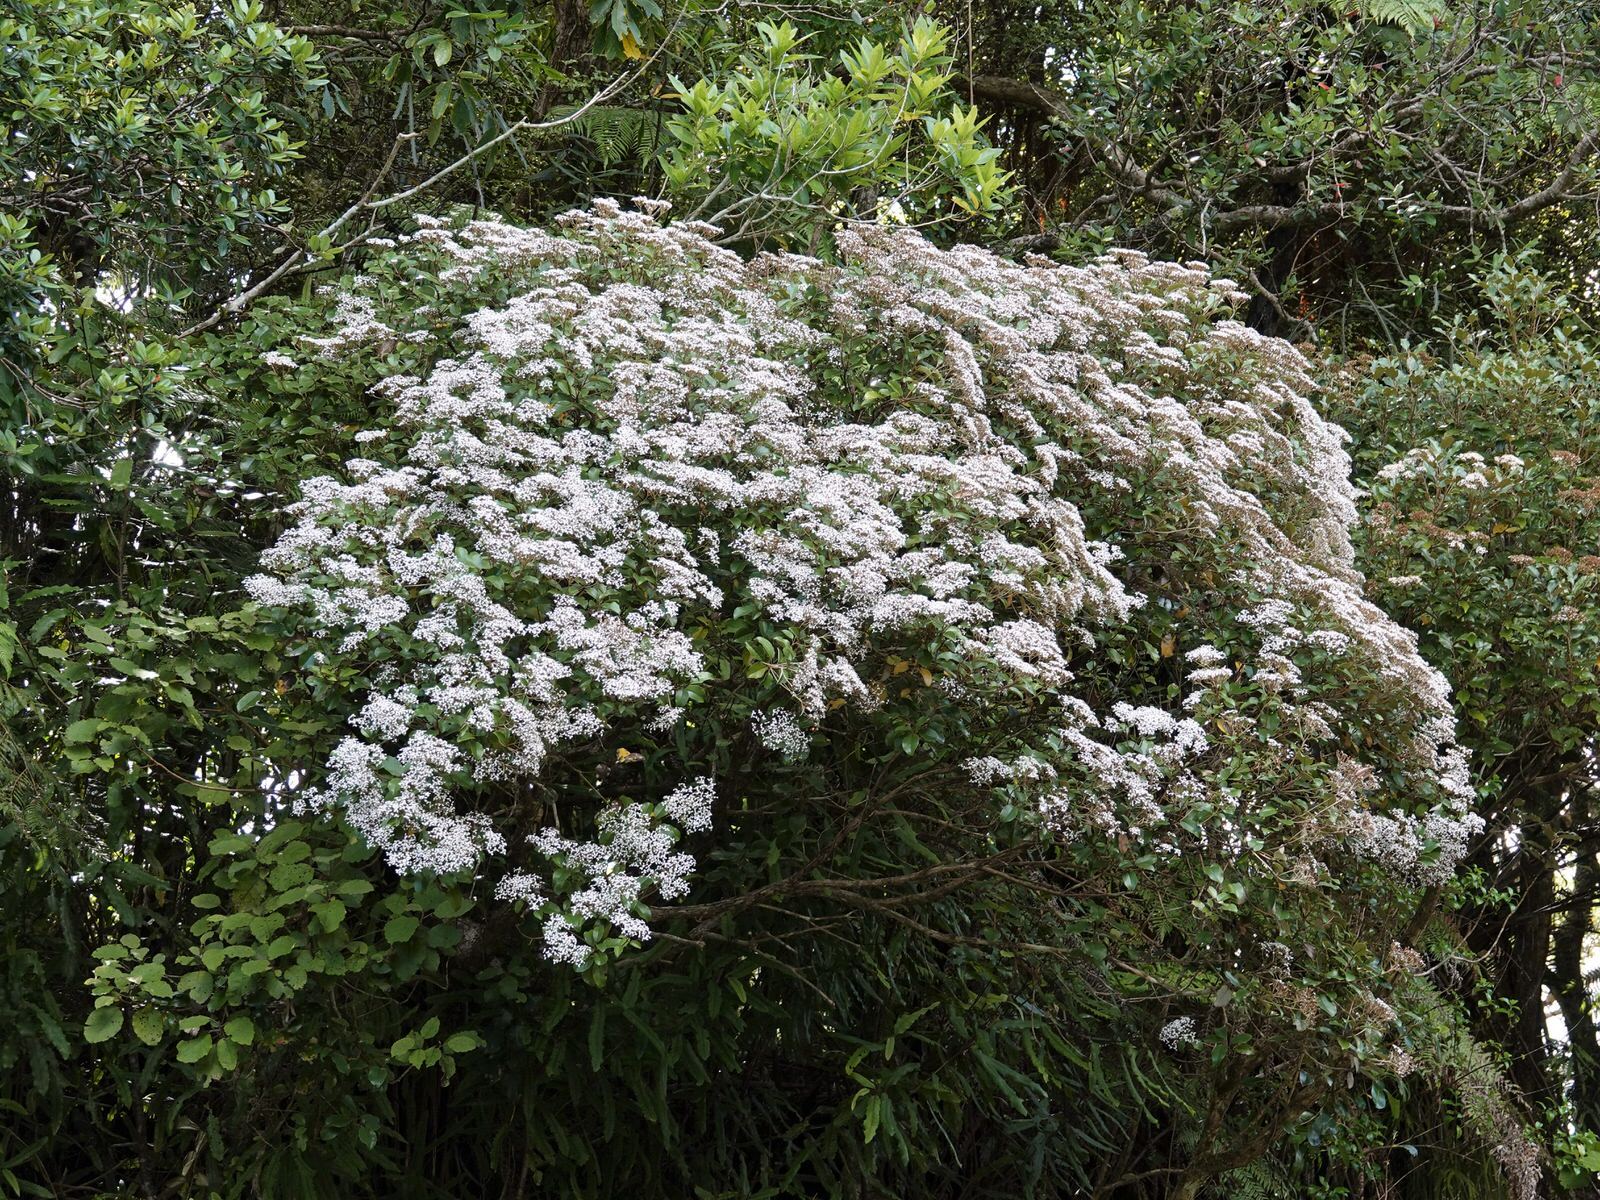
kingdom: Plantae
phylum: Tracheophyta
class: Magnoliopsida
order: Asterales
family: Asteraceae
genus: Olearia
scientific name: Olearia furfuracea
